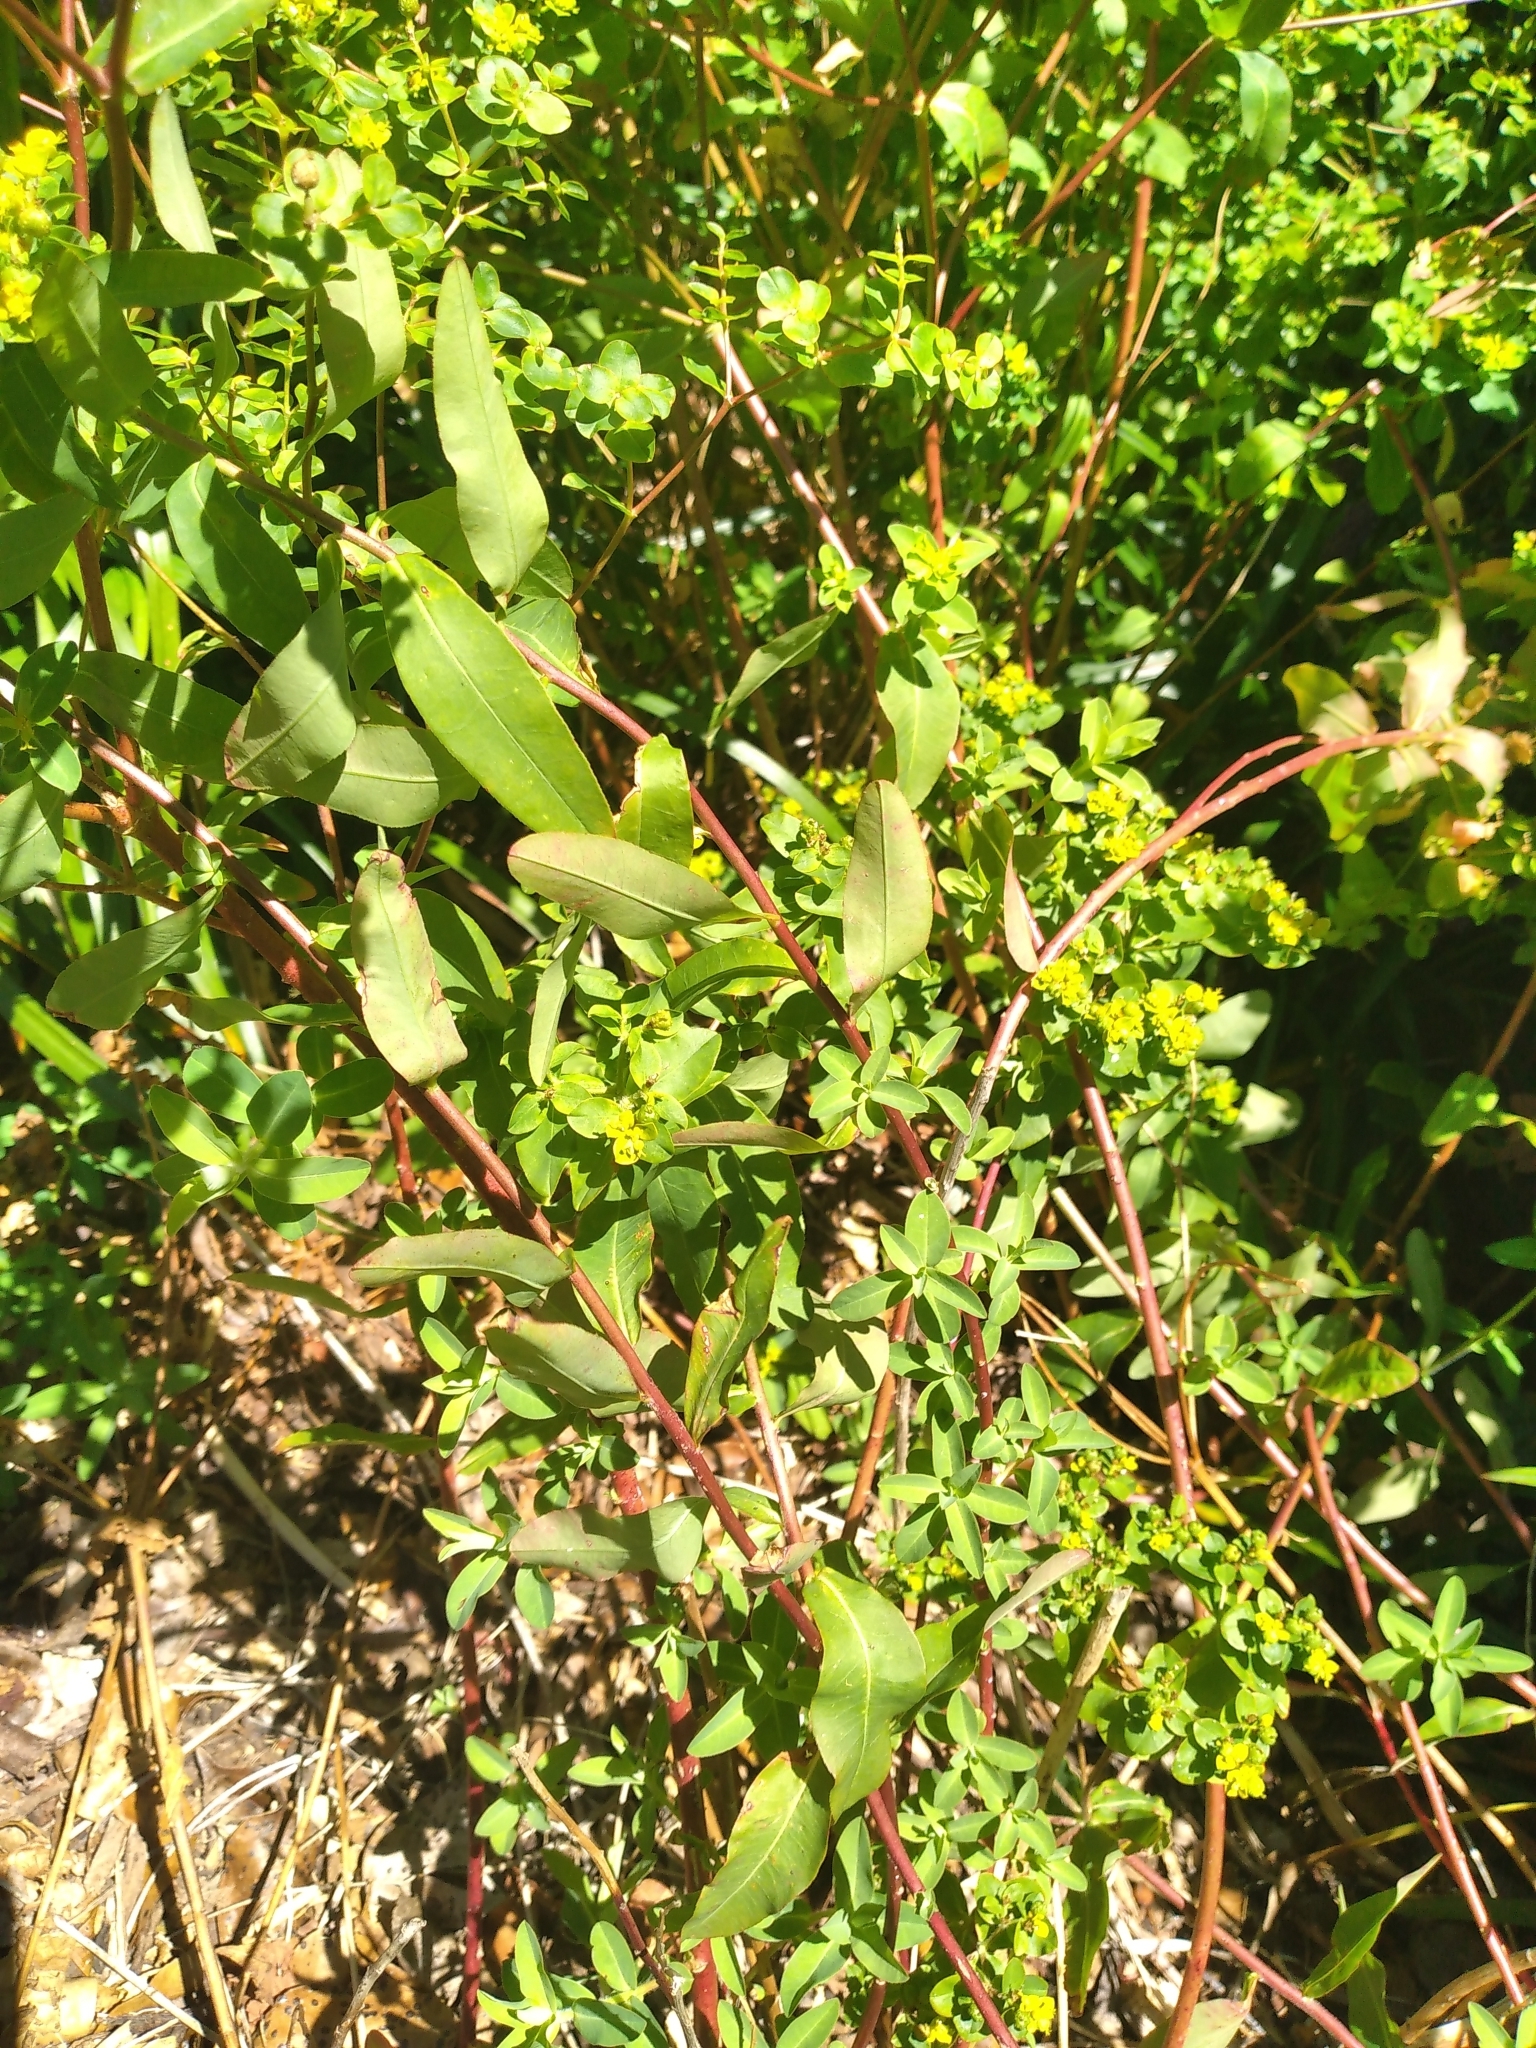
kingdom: Plantae
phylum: Tracheophyta
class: Magnoliopsida
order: Malpighiales
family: Euphorbiaceae
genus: Euphorbia
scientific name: Euphorbia oblongata
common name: Balkan spurge
